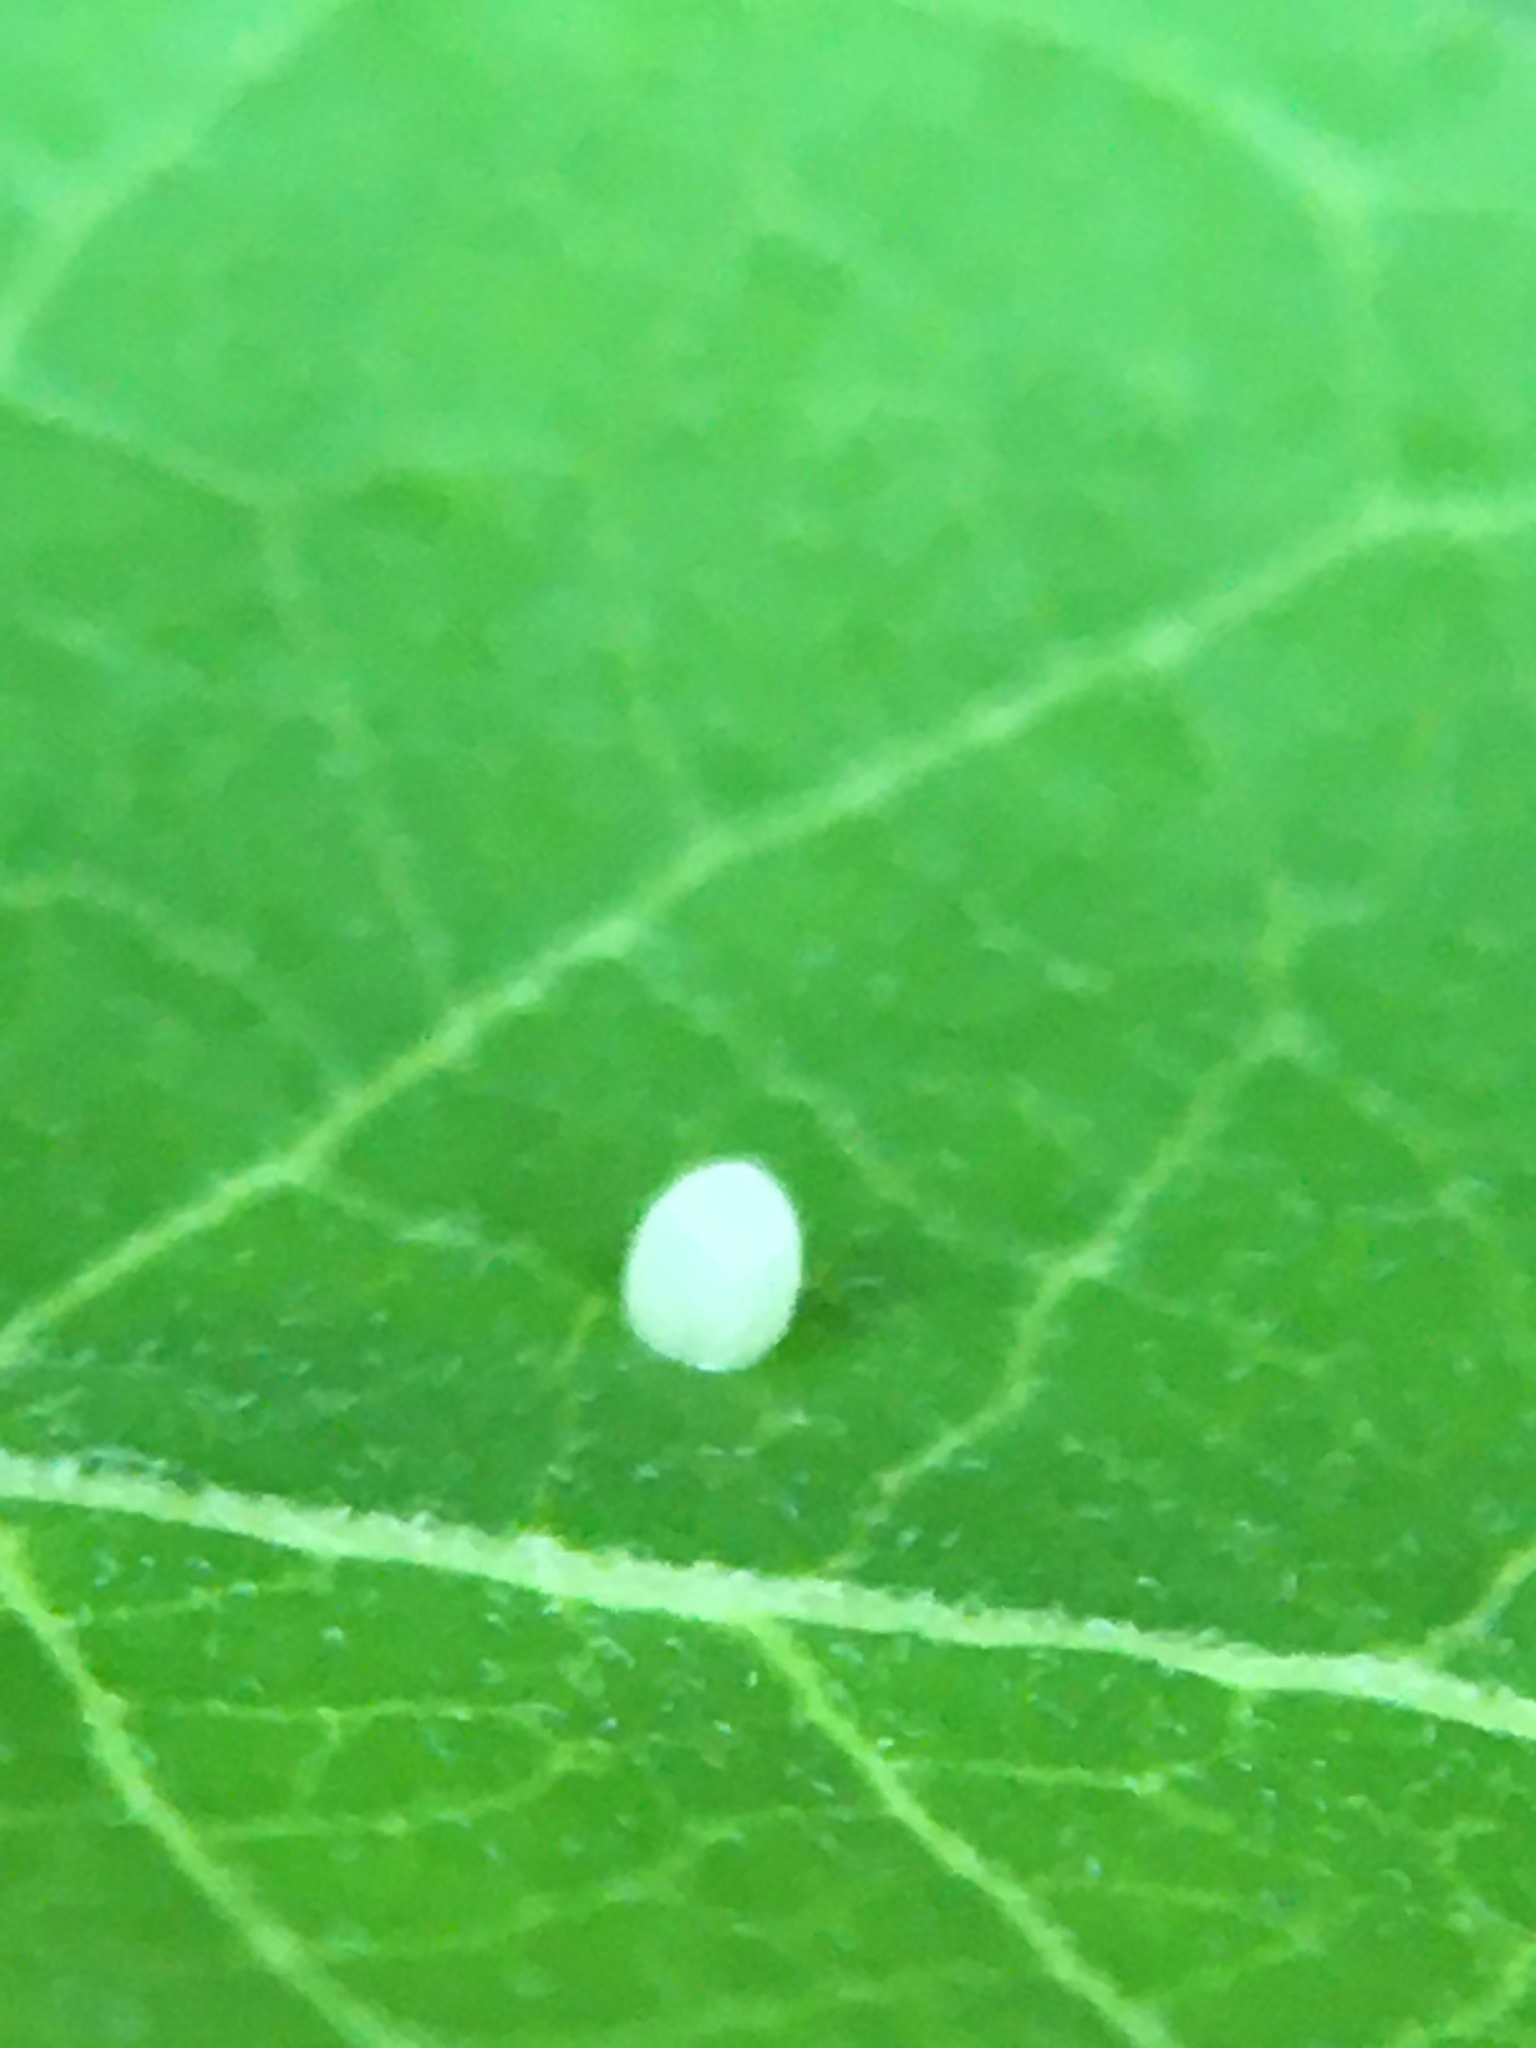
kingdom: Animalia
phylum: Arthropoda
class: Insecta
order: Lepidoptera
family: Nymphalidae
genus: Danaus
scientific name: Danaus plexippus
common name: Monarch
